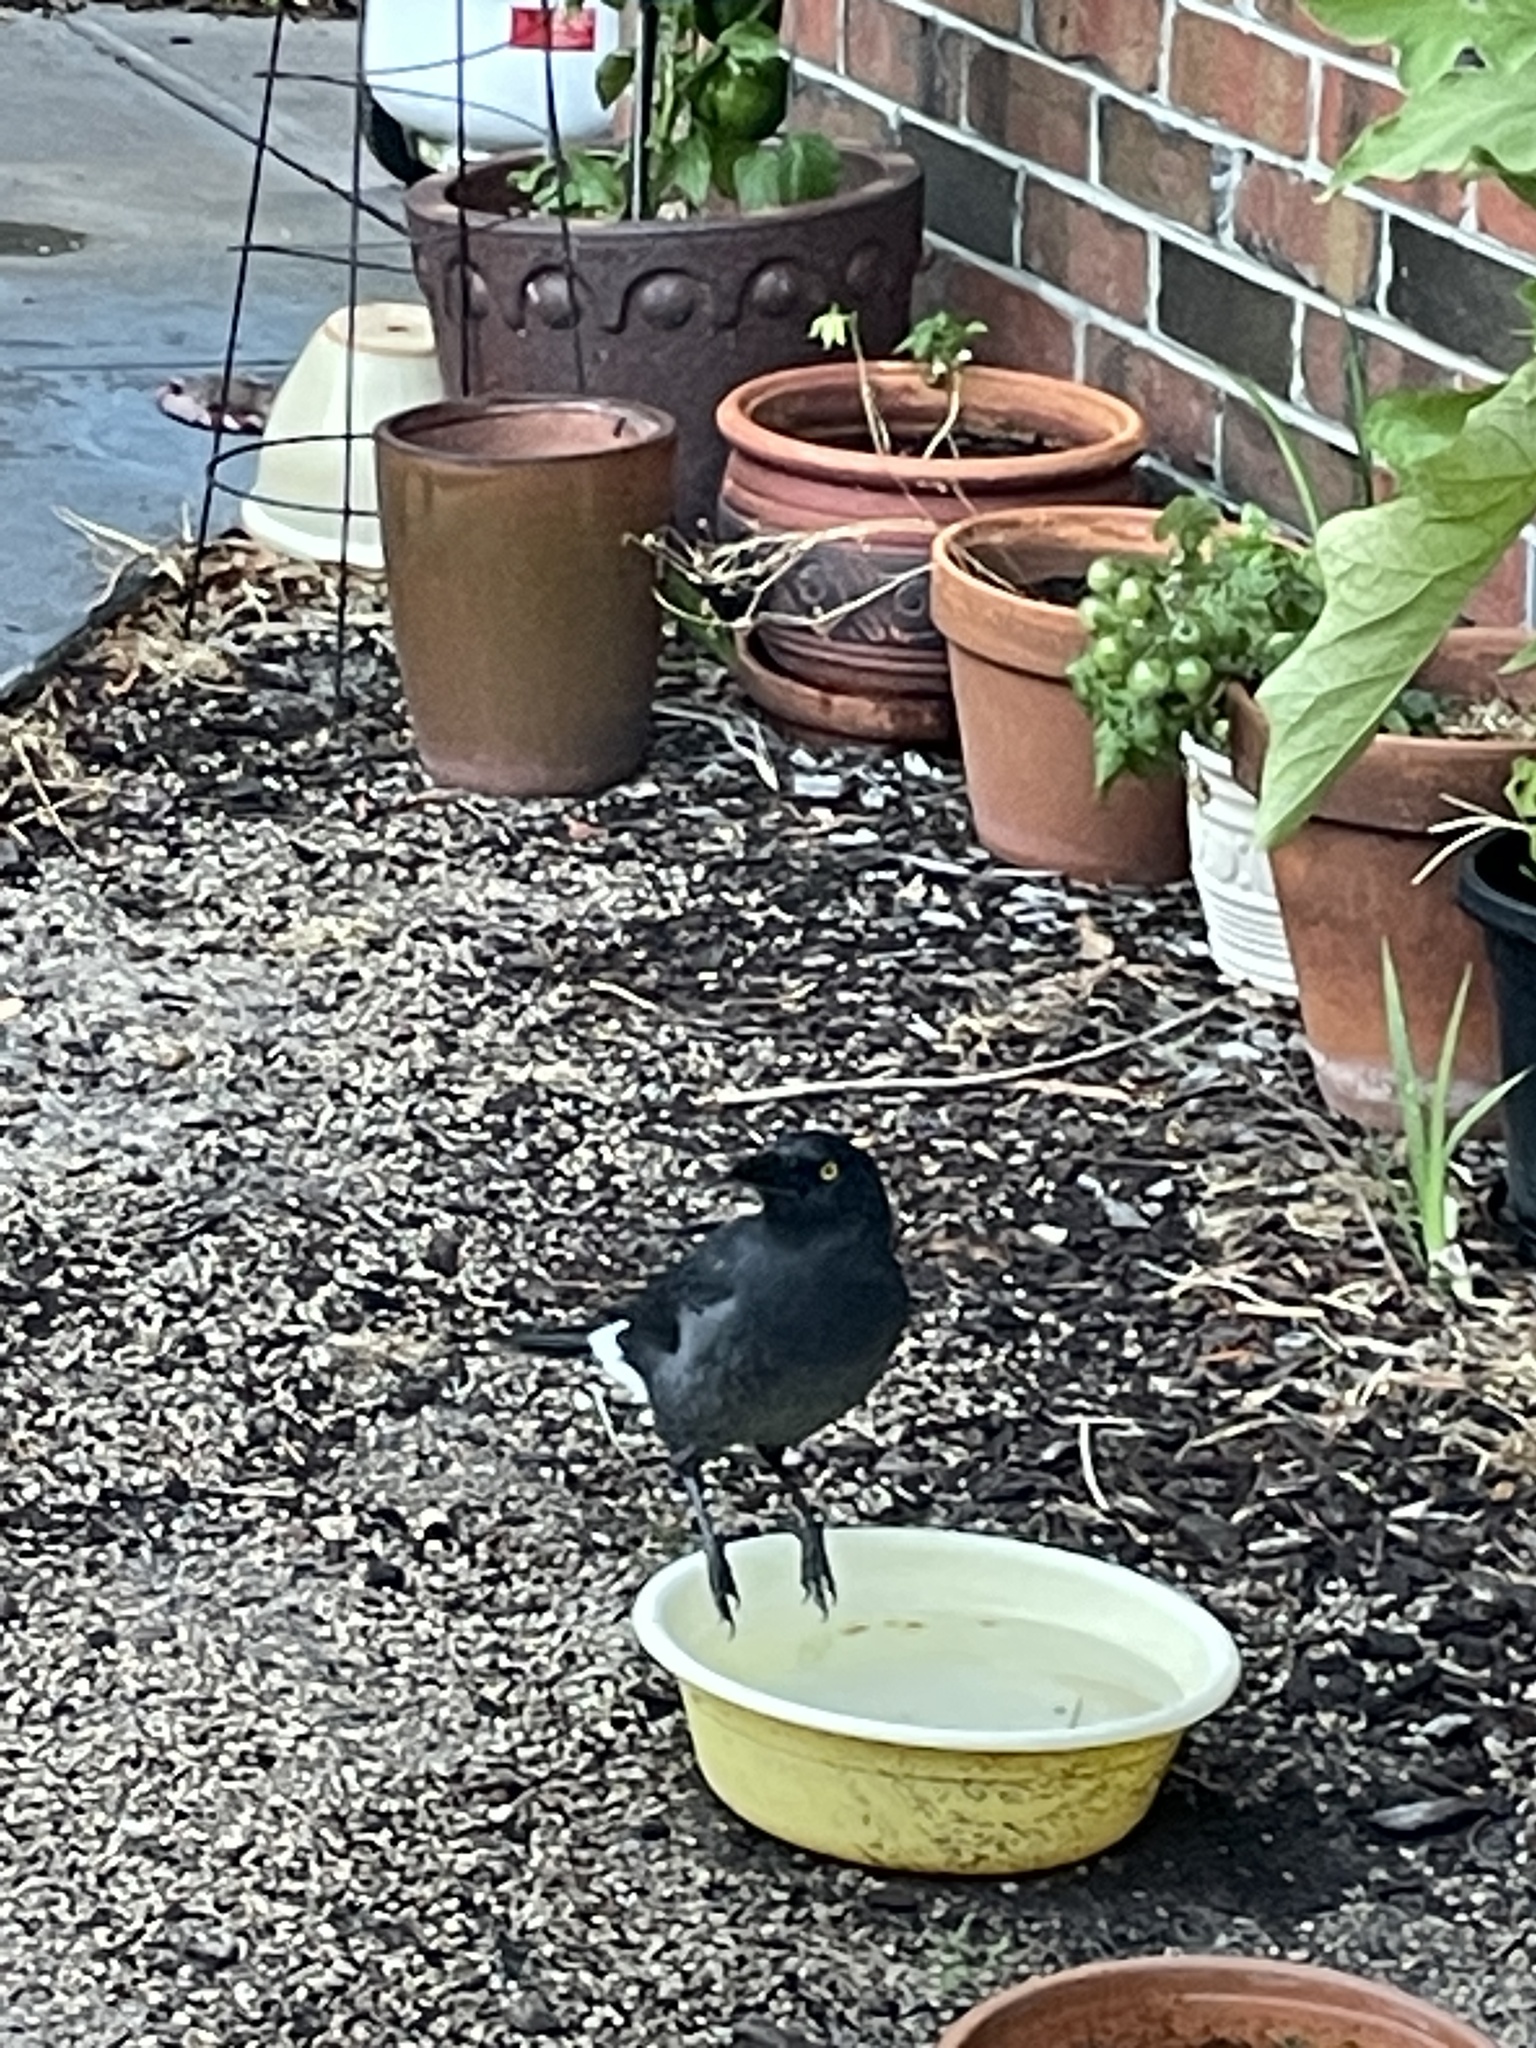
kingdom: Animalia
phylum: Chordata
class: Aves
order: Passeriformes
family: Cracticidae
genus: Strepera
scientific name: Strepera graculina
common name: Pied currawong
